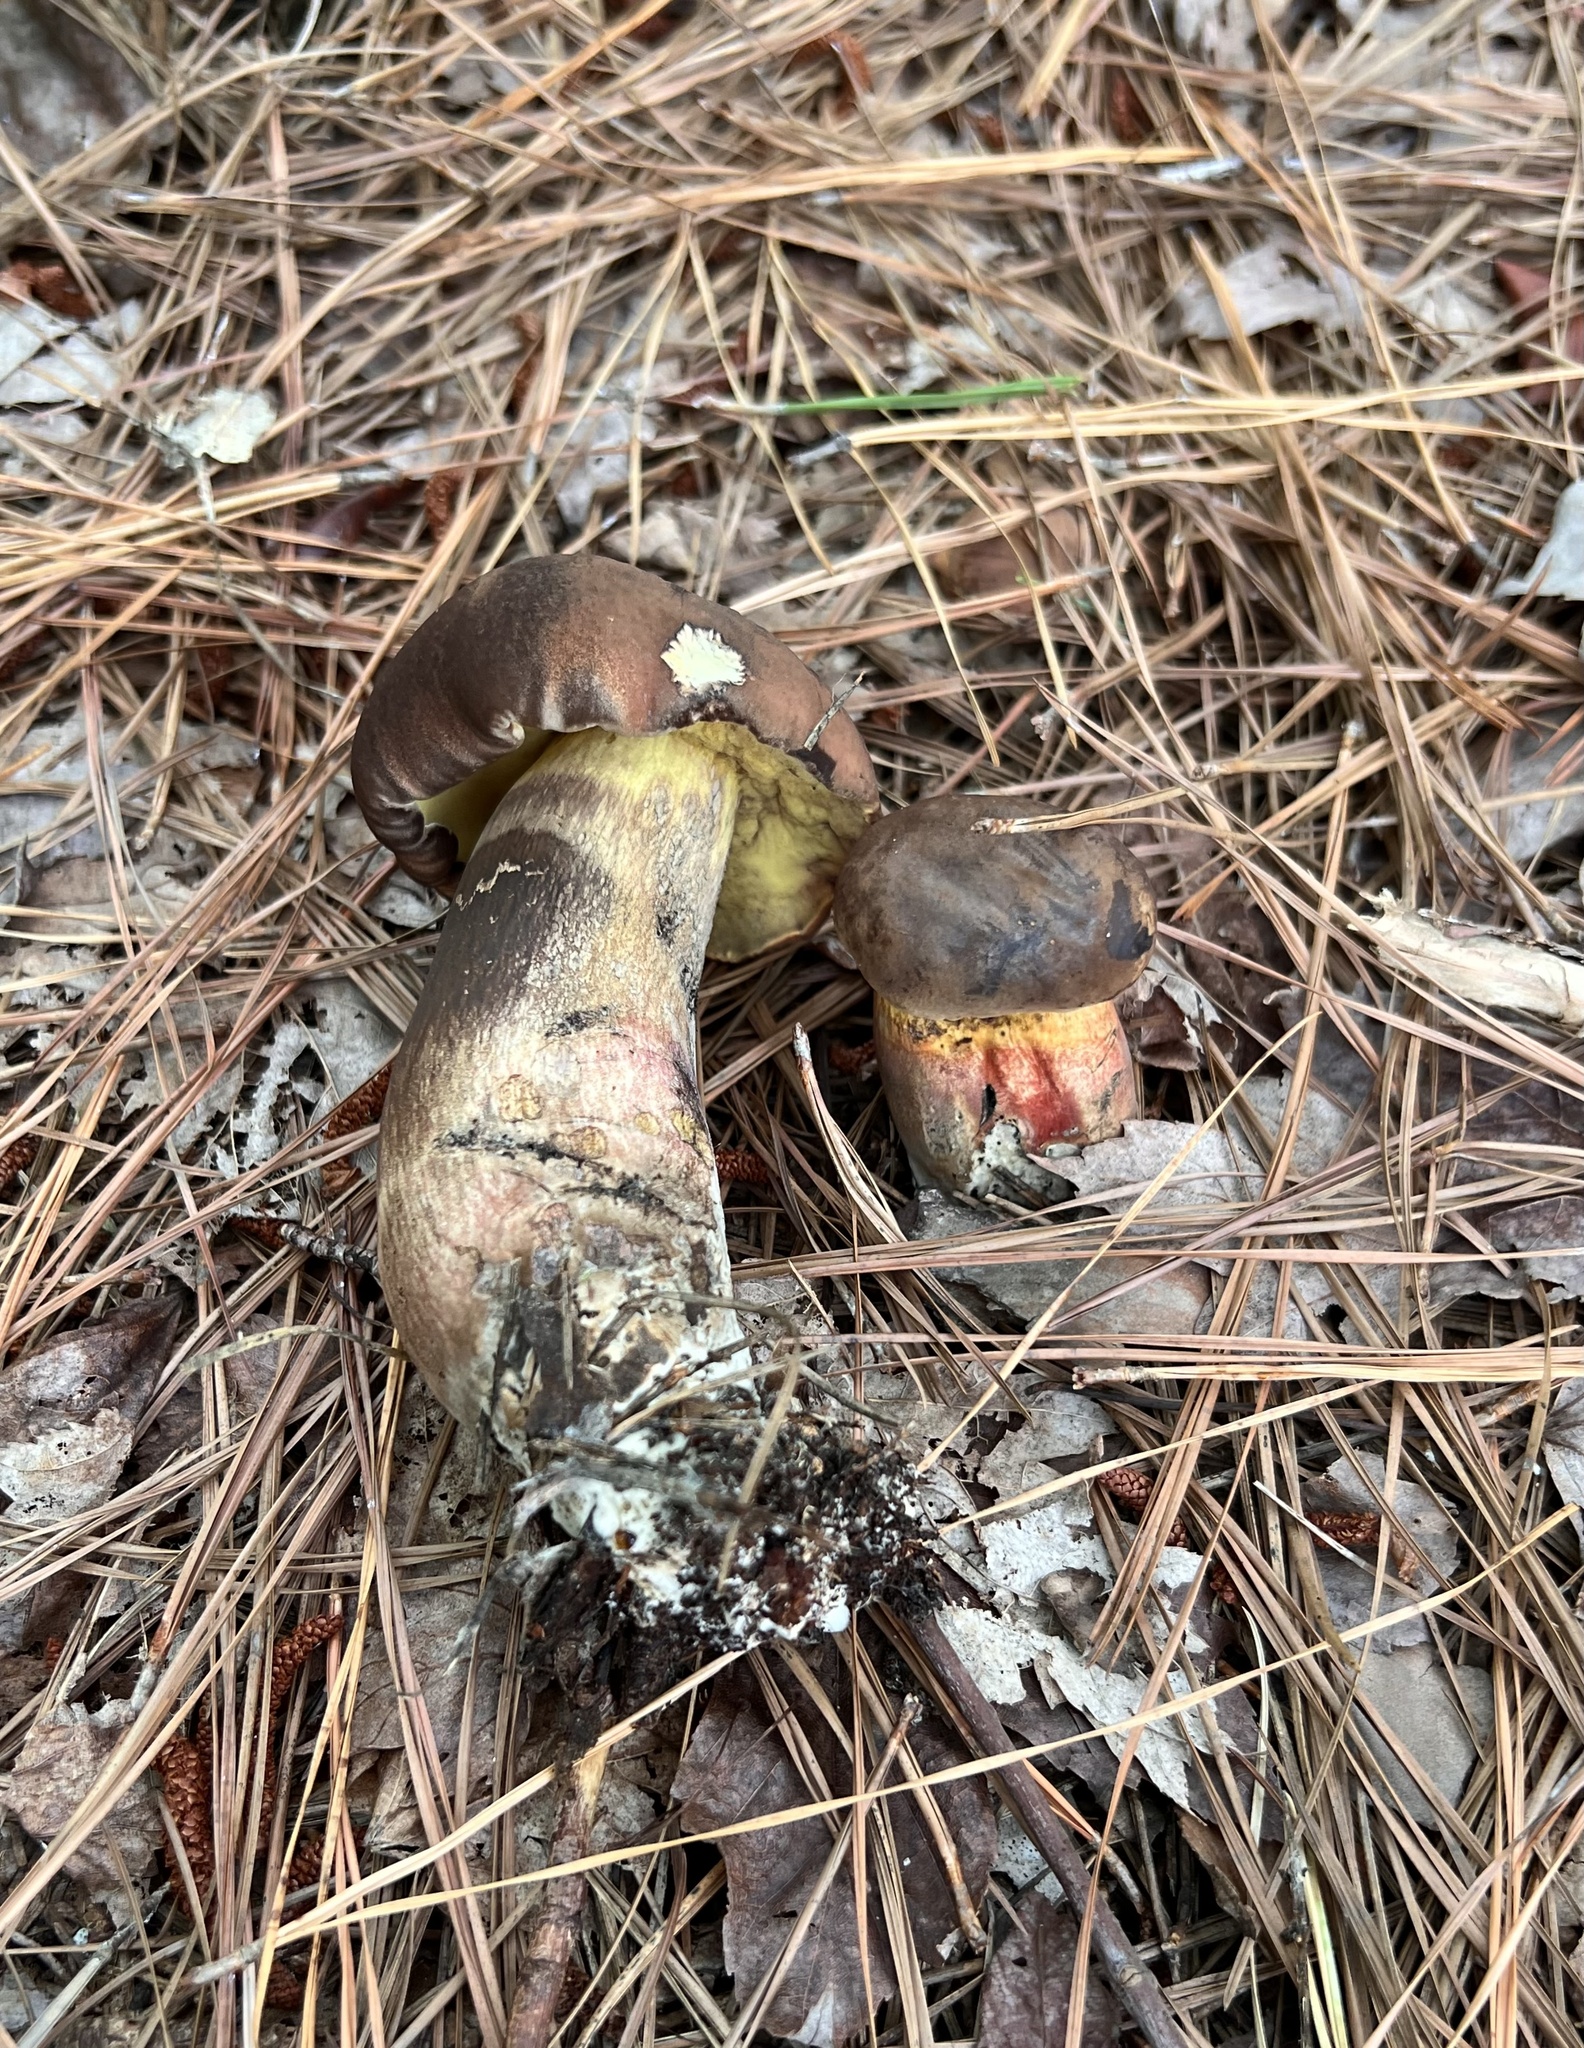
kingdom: Fungi
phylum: Basidiomycota
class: Agaricomycetes
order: Boletales
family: Boletaceae
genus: Boletus
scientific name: Boletus
